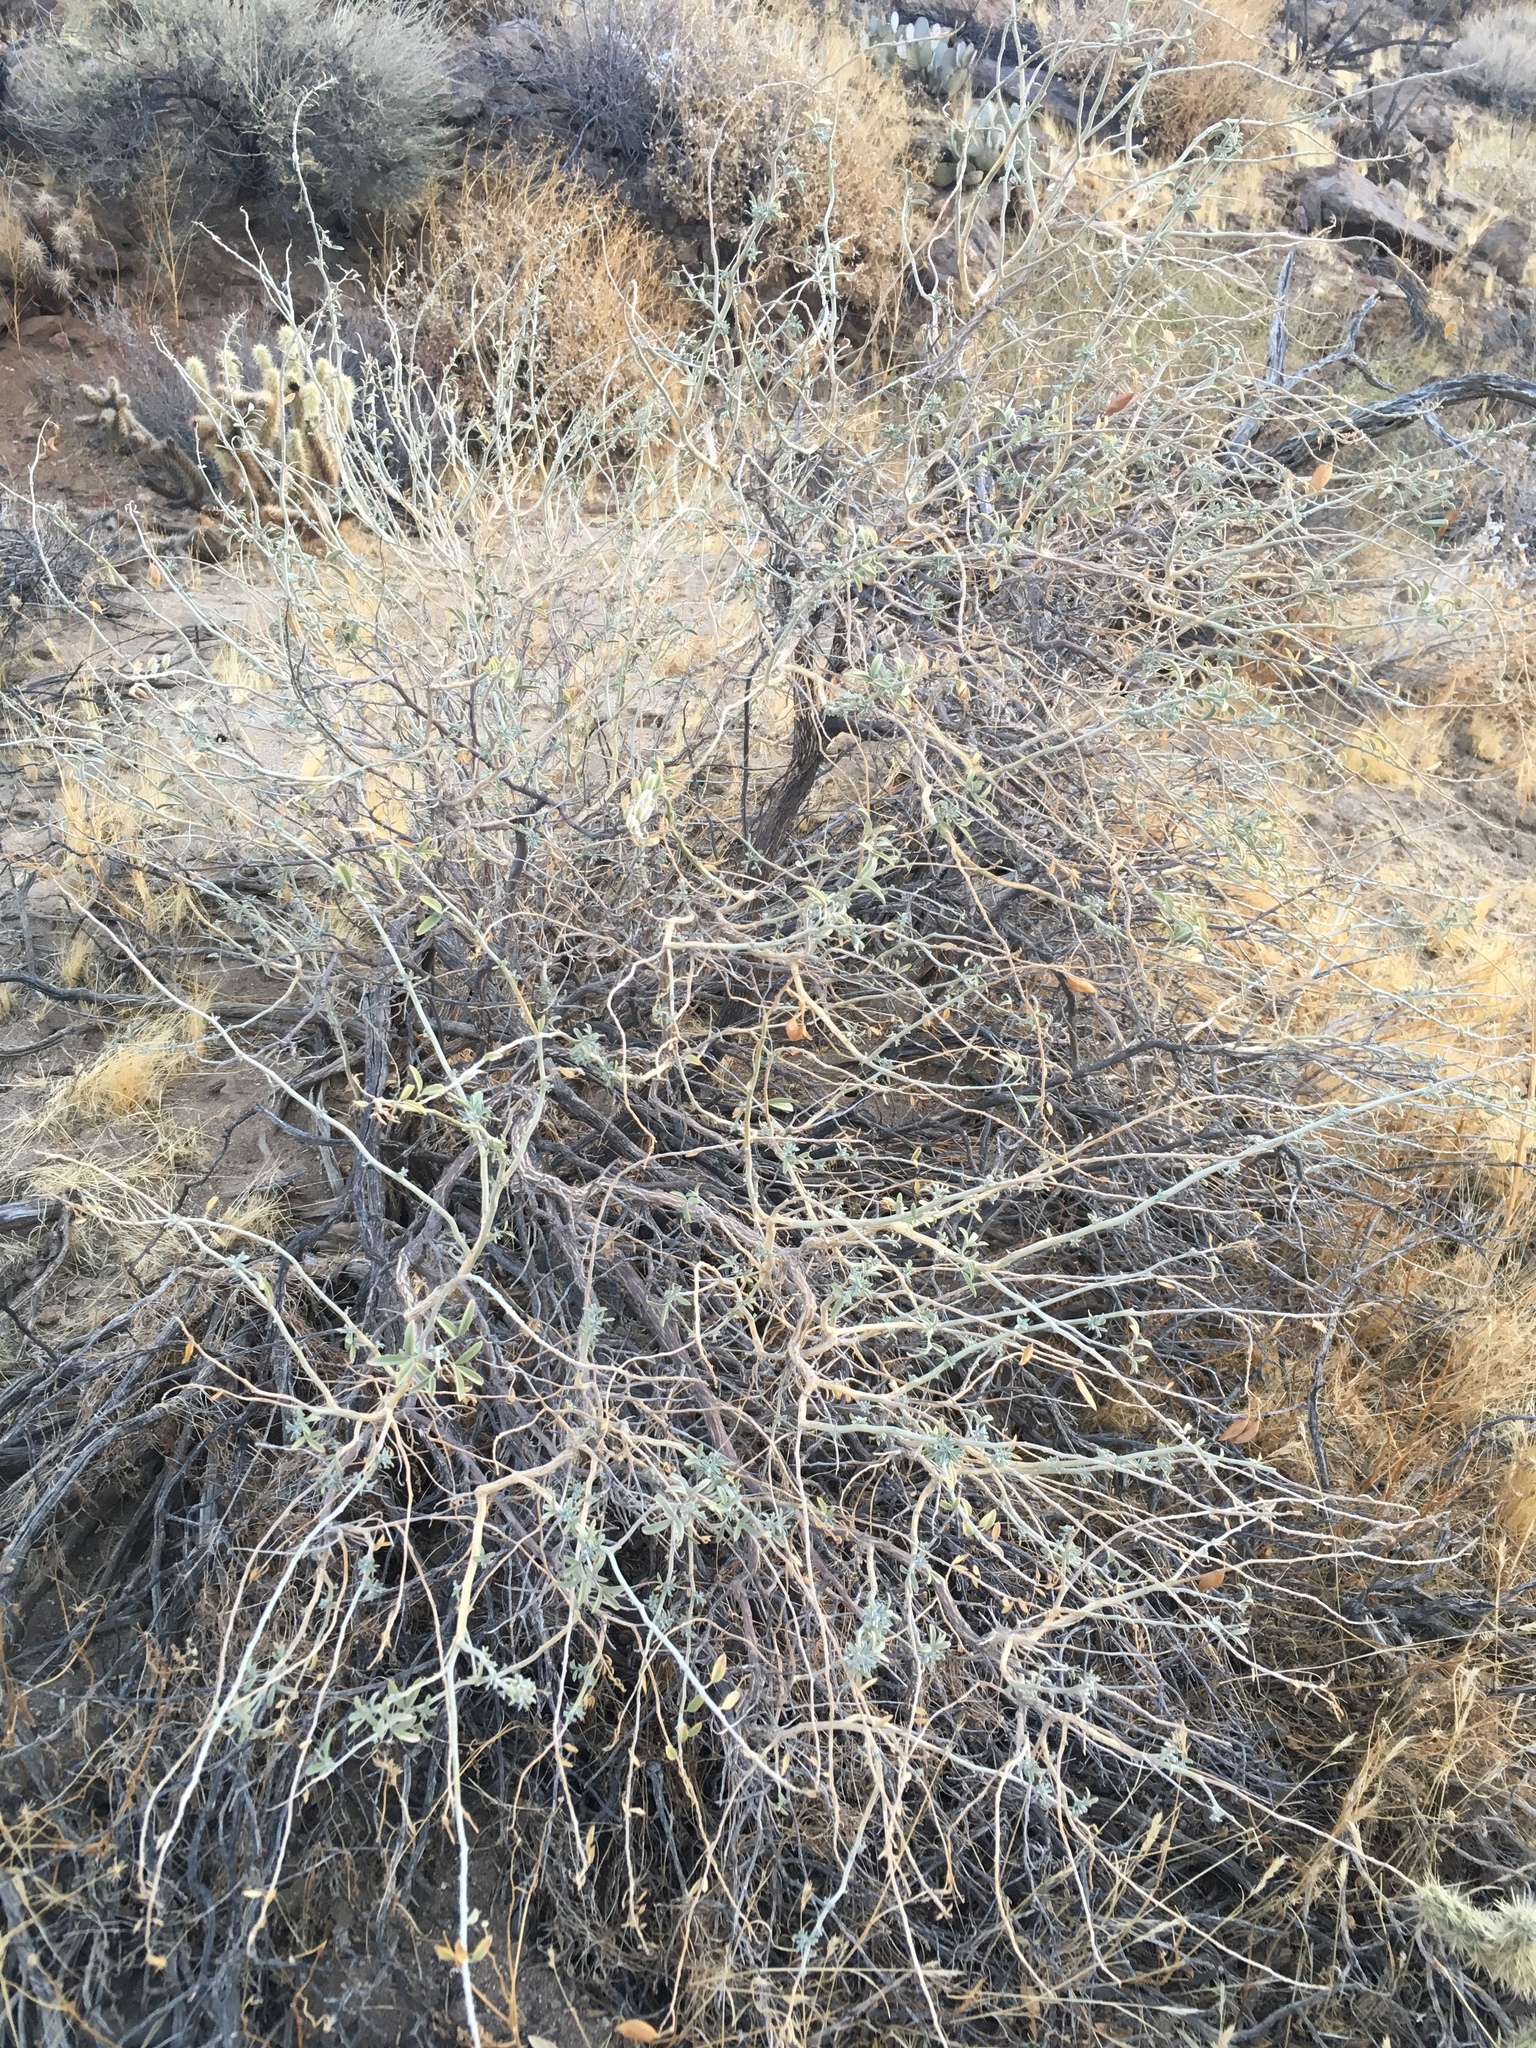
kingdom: Plantae
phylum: Tracheophyta
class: Magnoliopsida
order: Brassicales
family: Cleomaceae
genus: Cleomella
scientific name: Cleomella arborea
